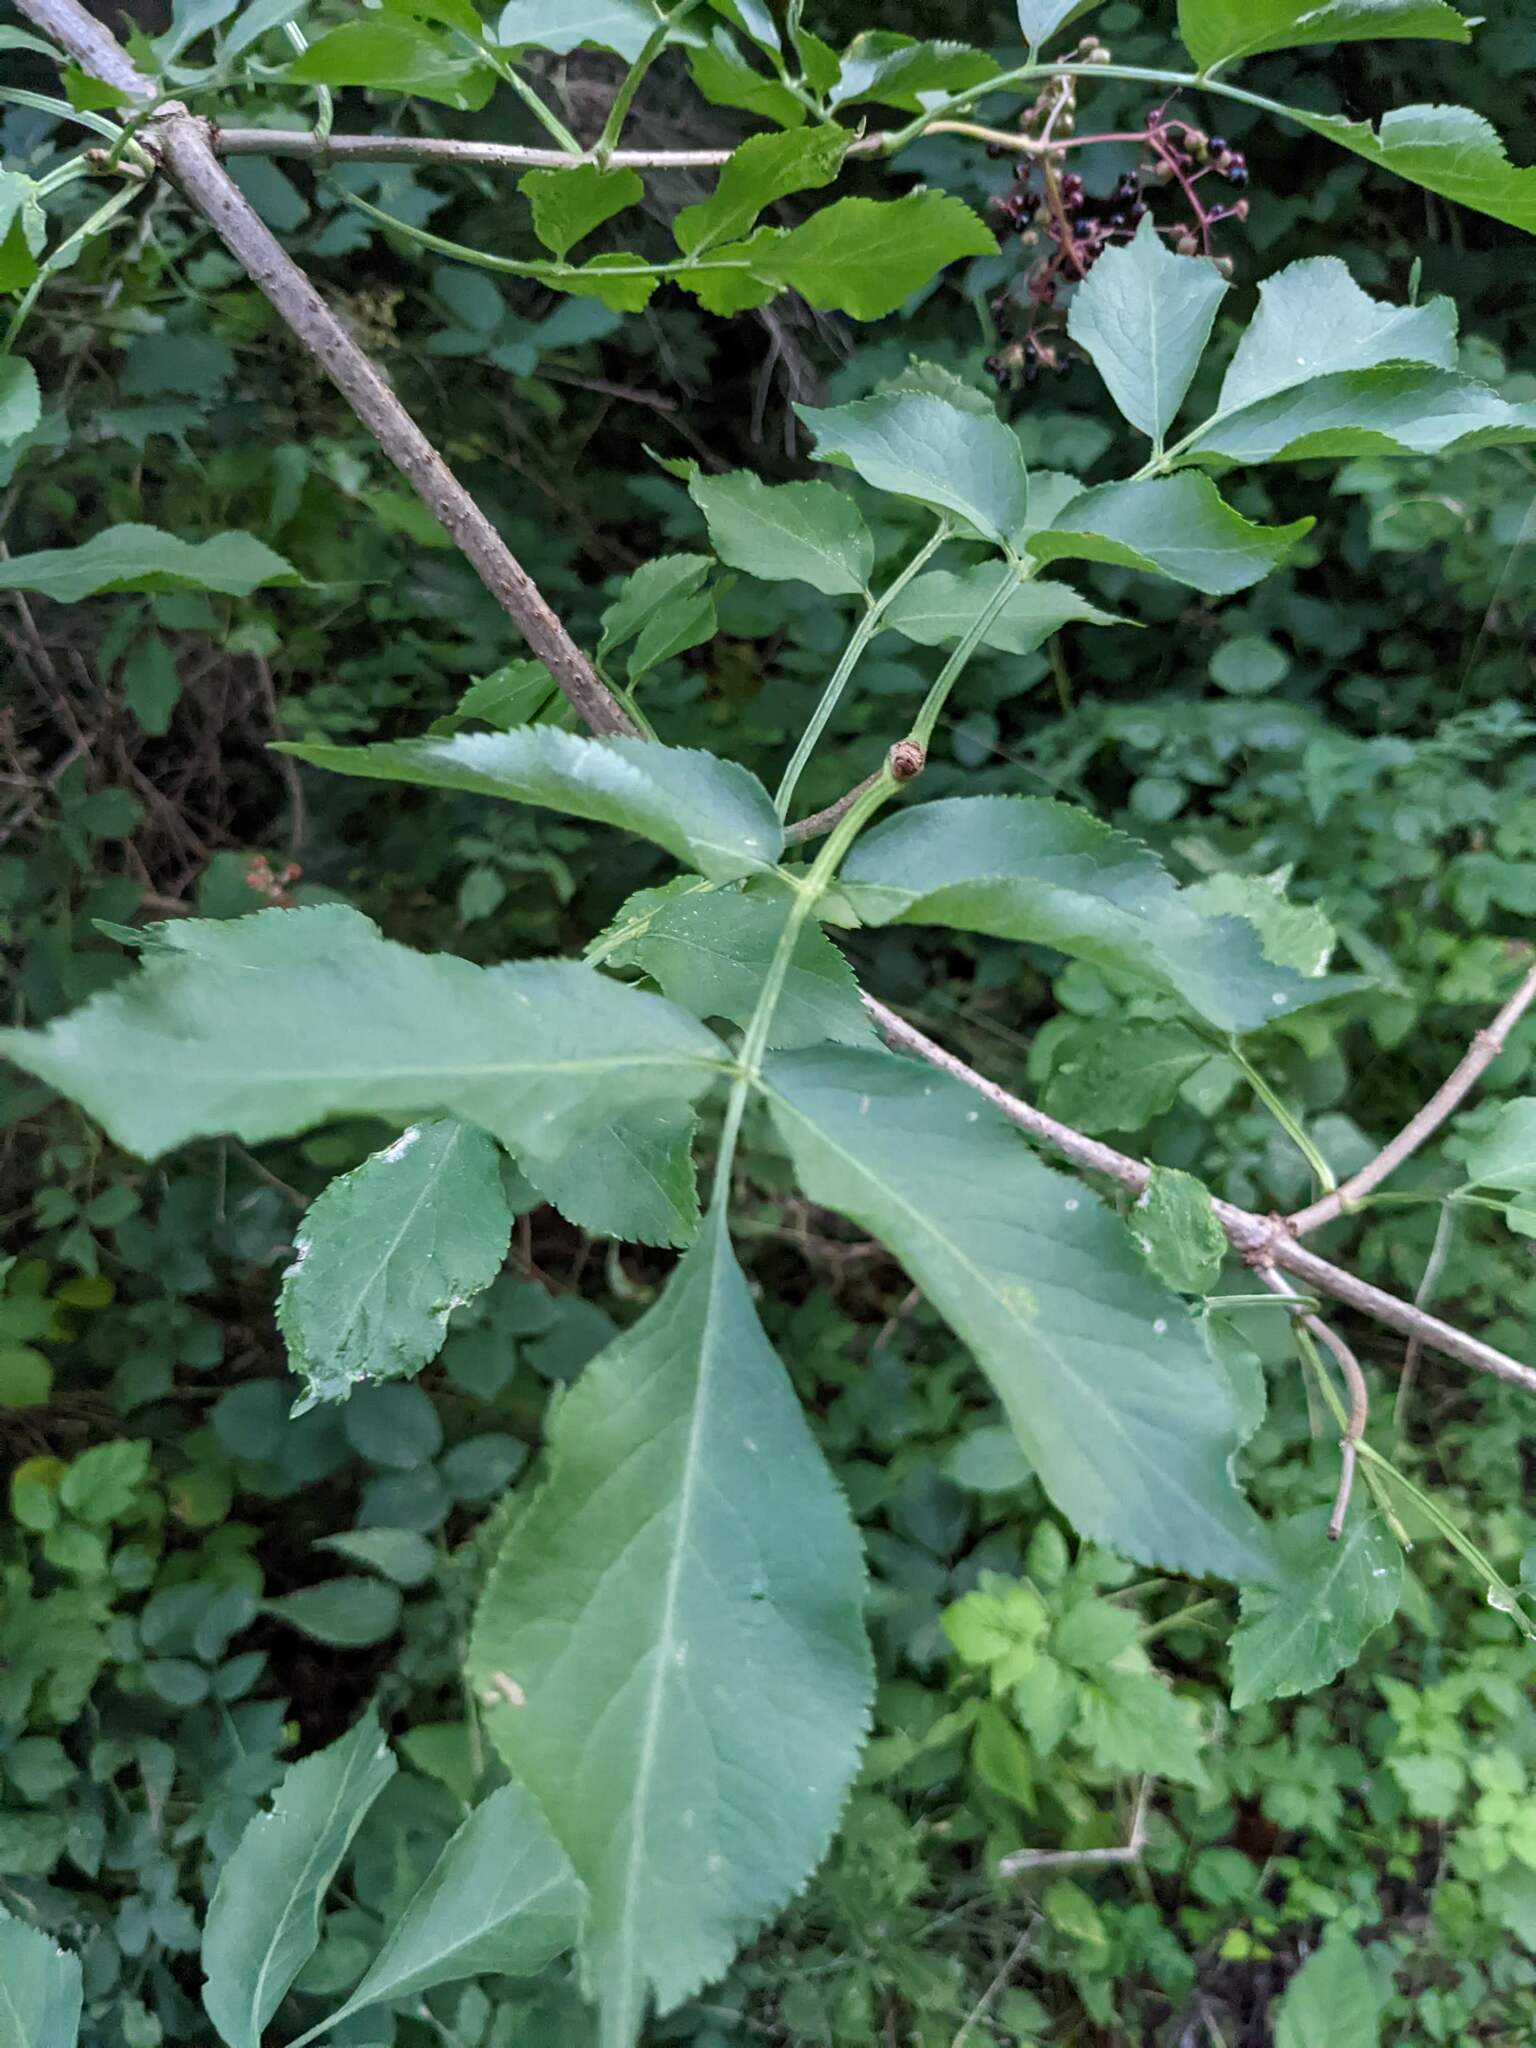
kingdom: Plantae
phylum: Tracheophyta
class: Magnoliopsida
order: Dipsacales
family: Viburnaceae
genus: Sambucus
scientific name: Sambucus nigra
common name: Elder
